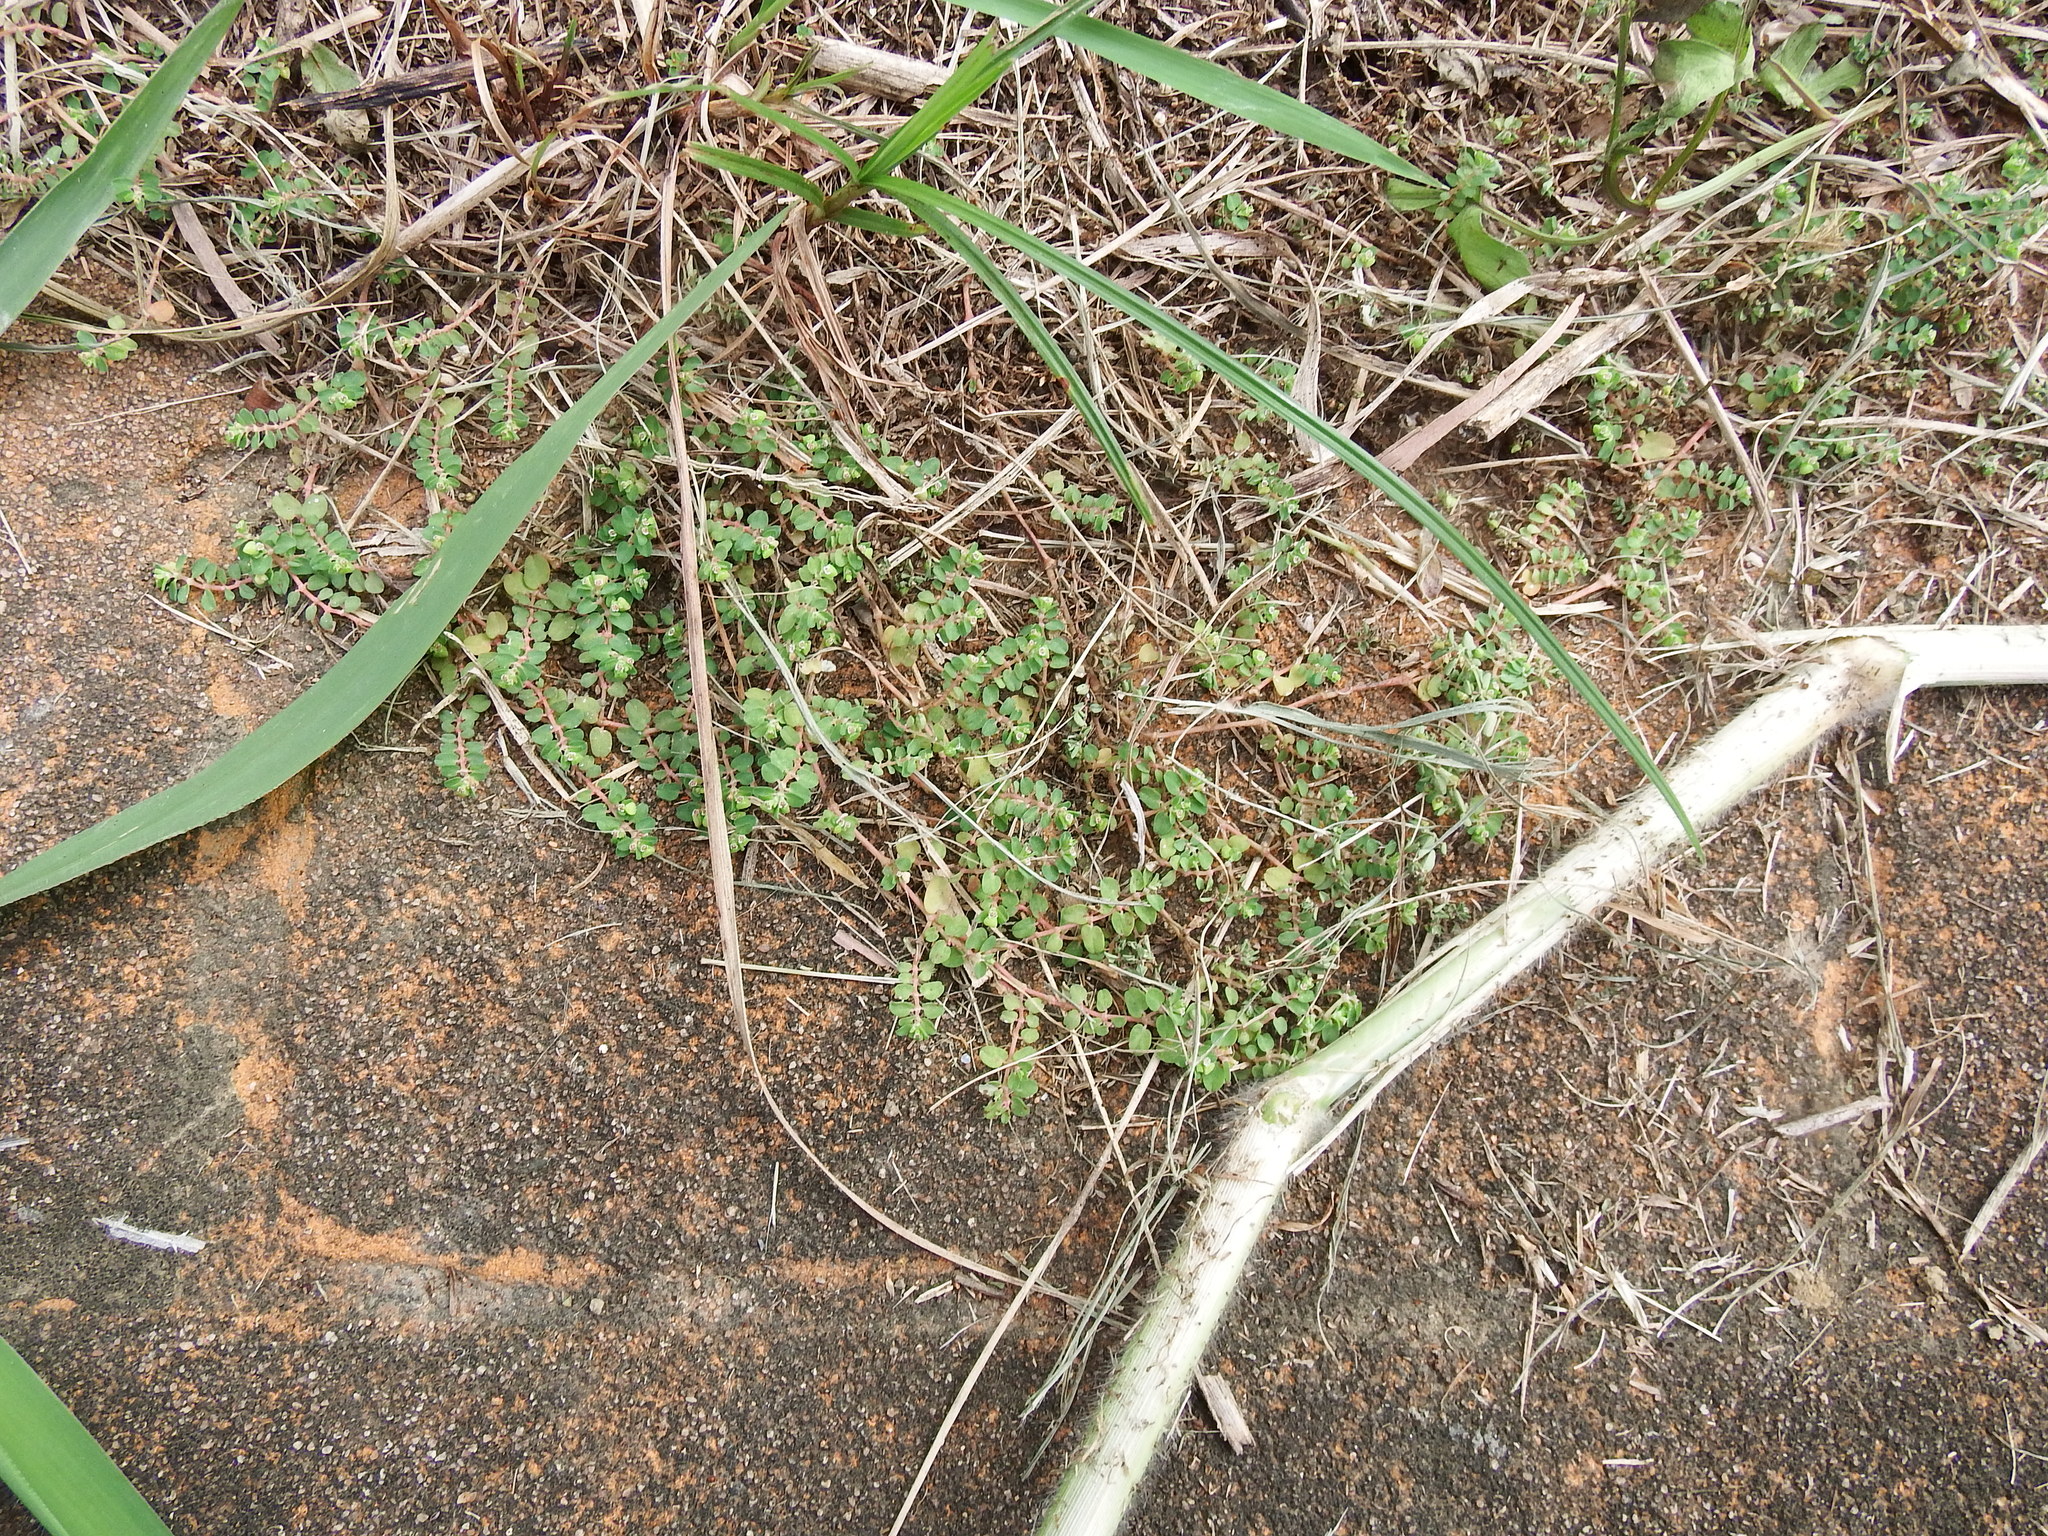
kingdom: Plantae
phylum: Tracheophyta
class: Magnoliopsida
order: Malpighiales
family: Euphorbiaceae
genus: Euphorbia
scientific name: Euphorbia serpens
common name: Matted sandmat
